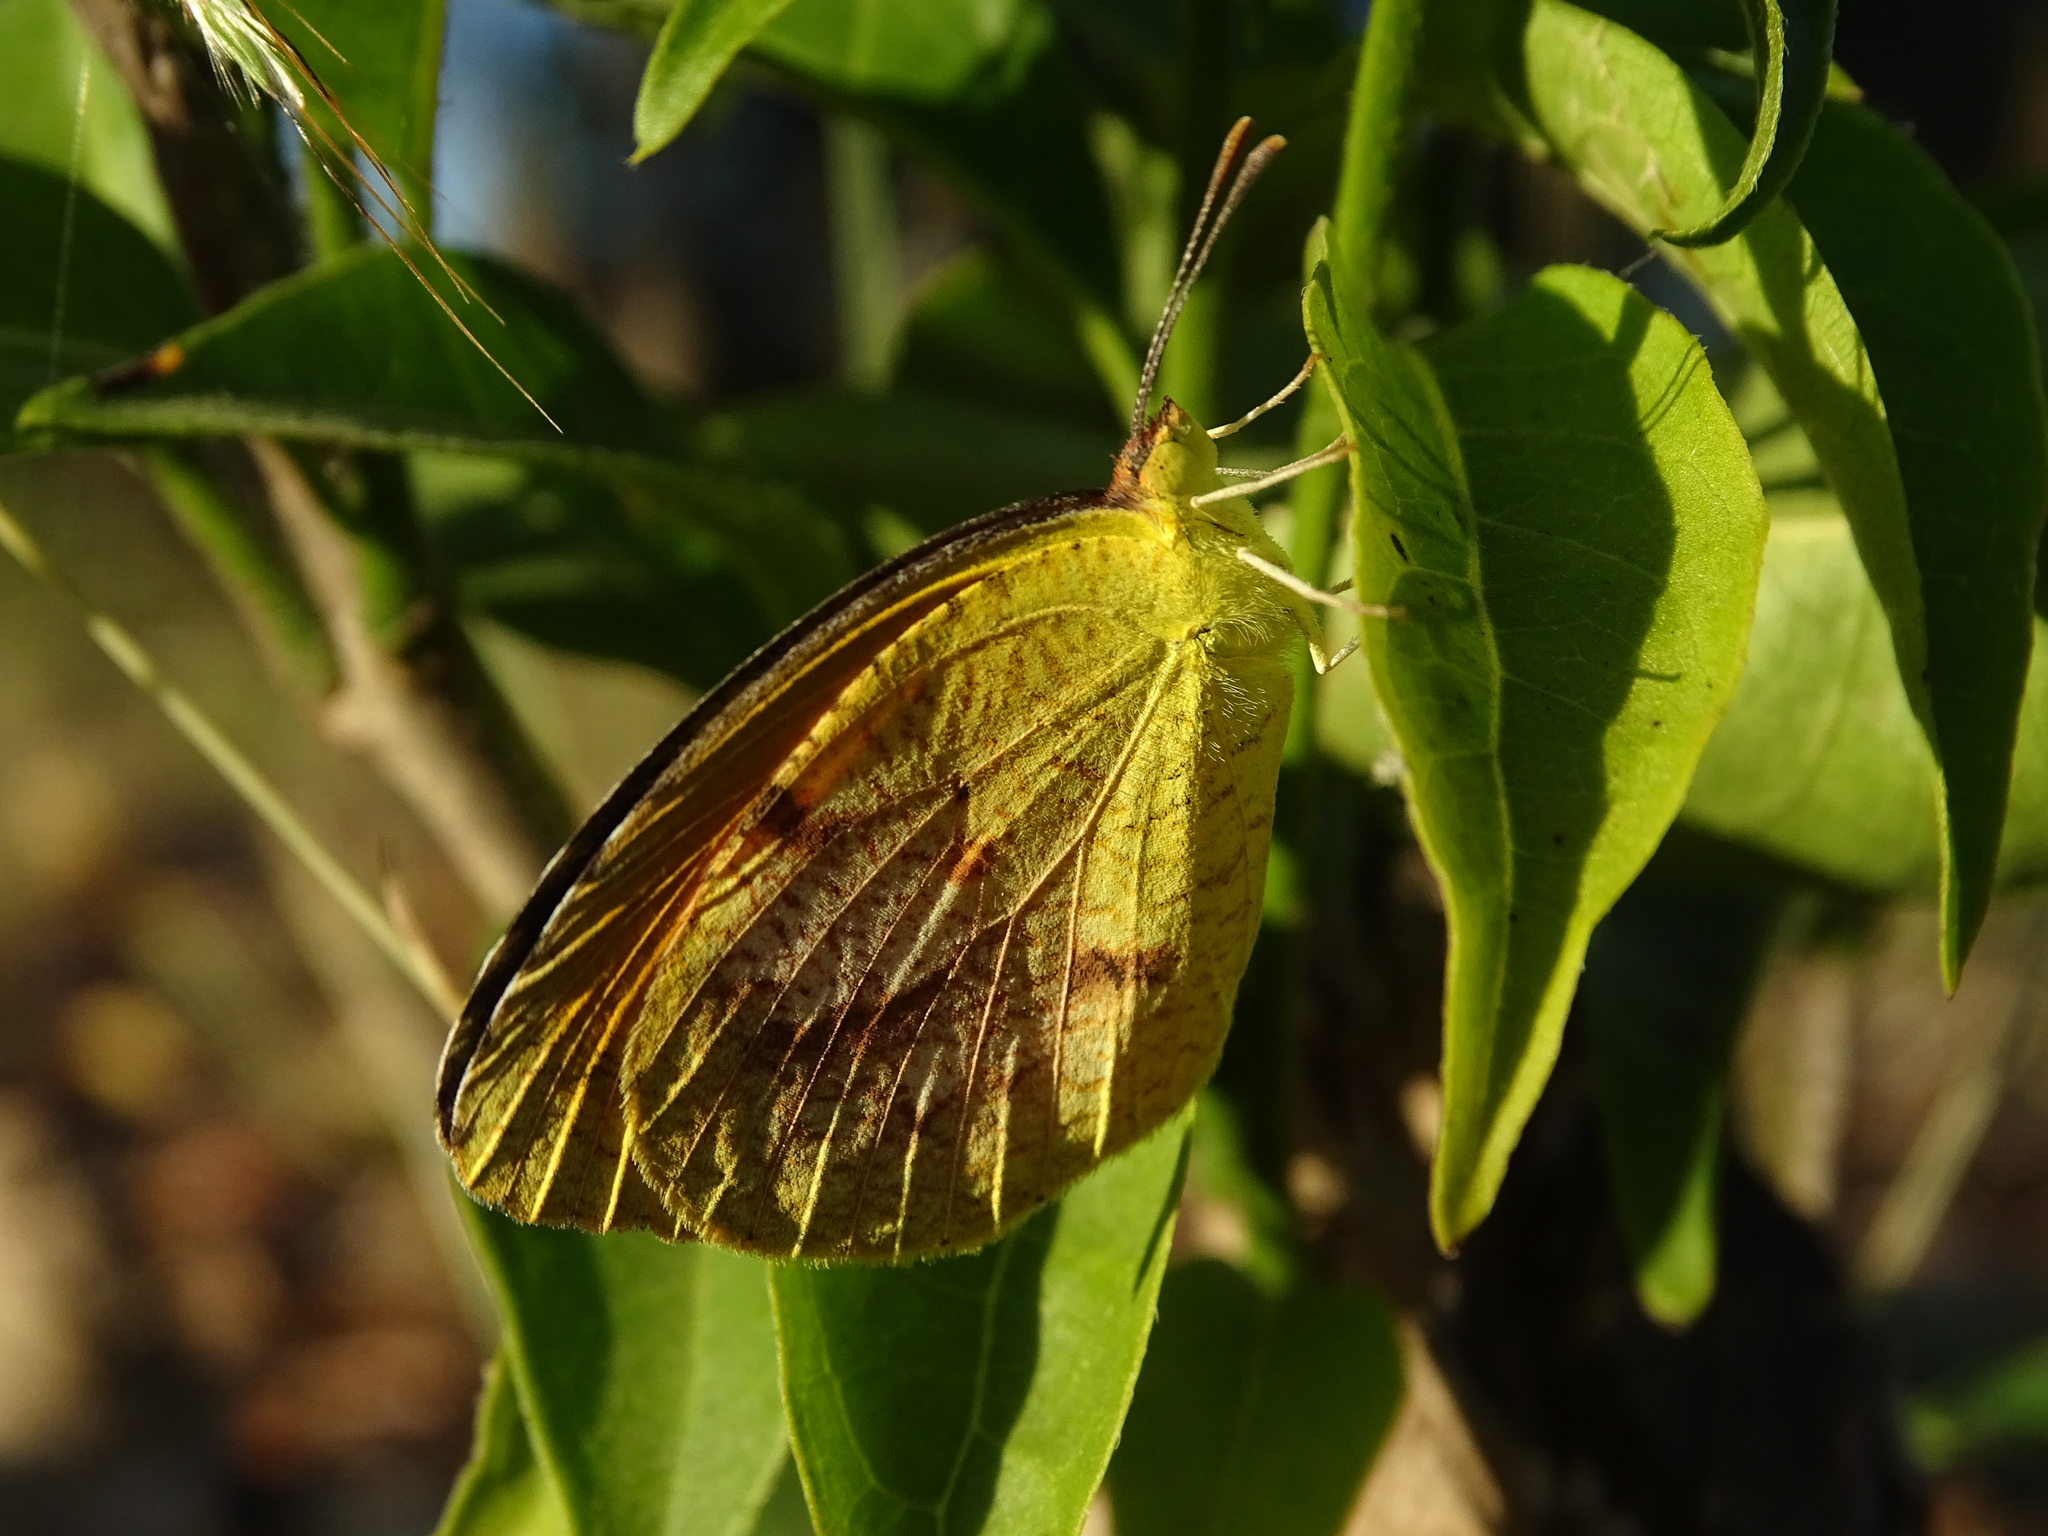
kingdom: Animalia
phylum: Arthropoda
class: Insecta
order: Lepidoptera
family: Pieridae
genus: Abaeis
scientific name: Abaeis nicippe
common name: Sleepy orange
